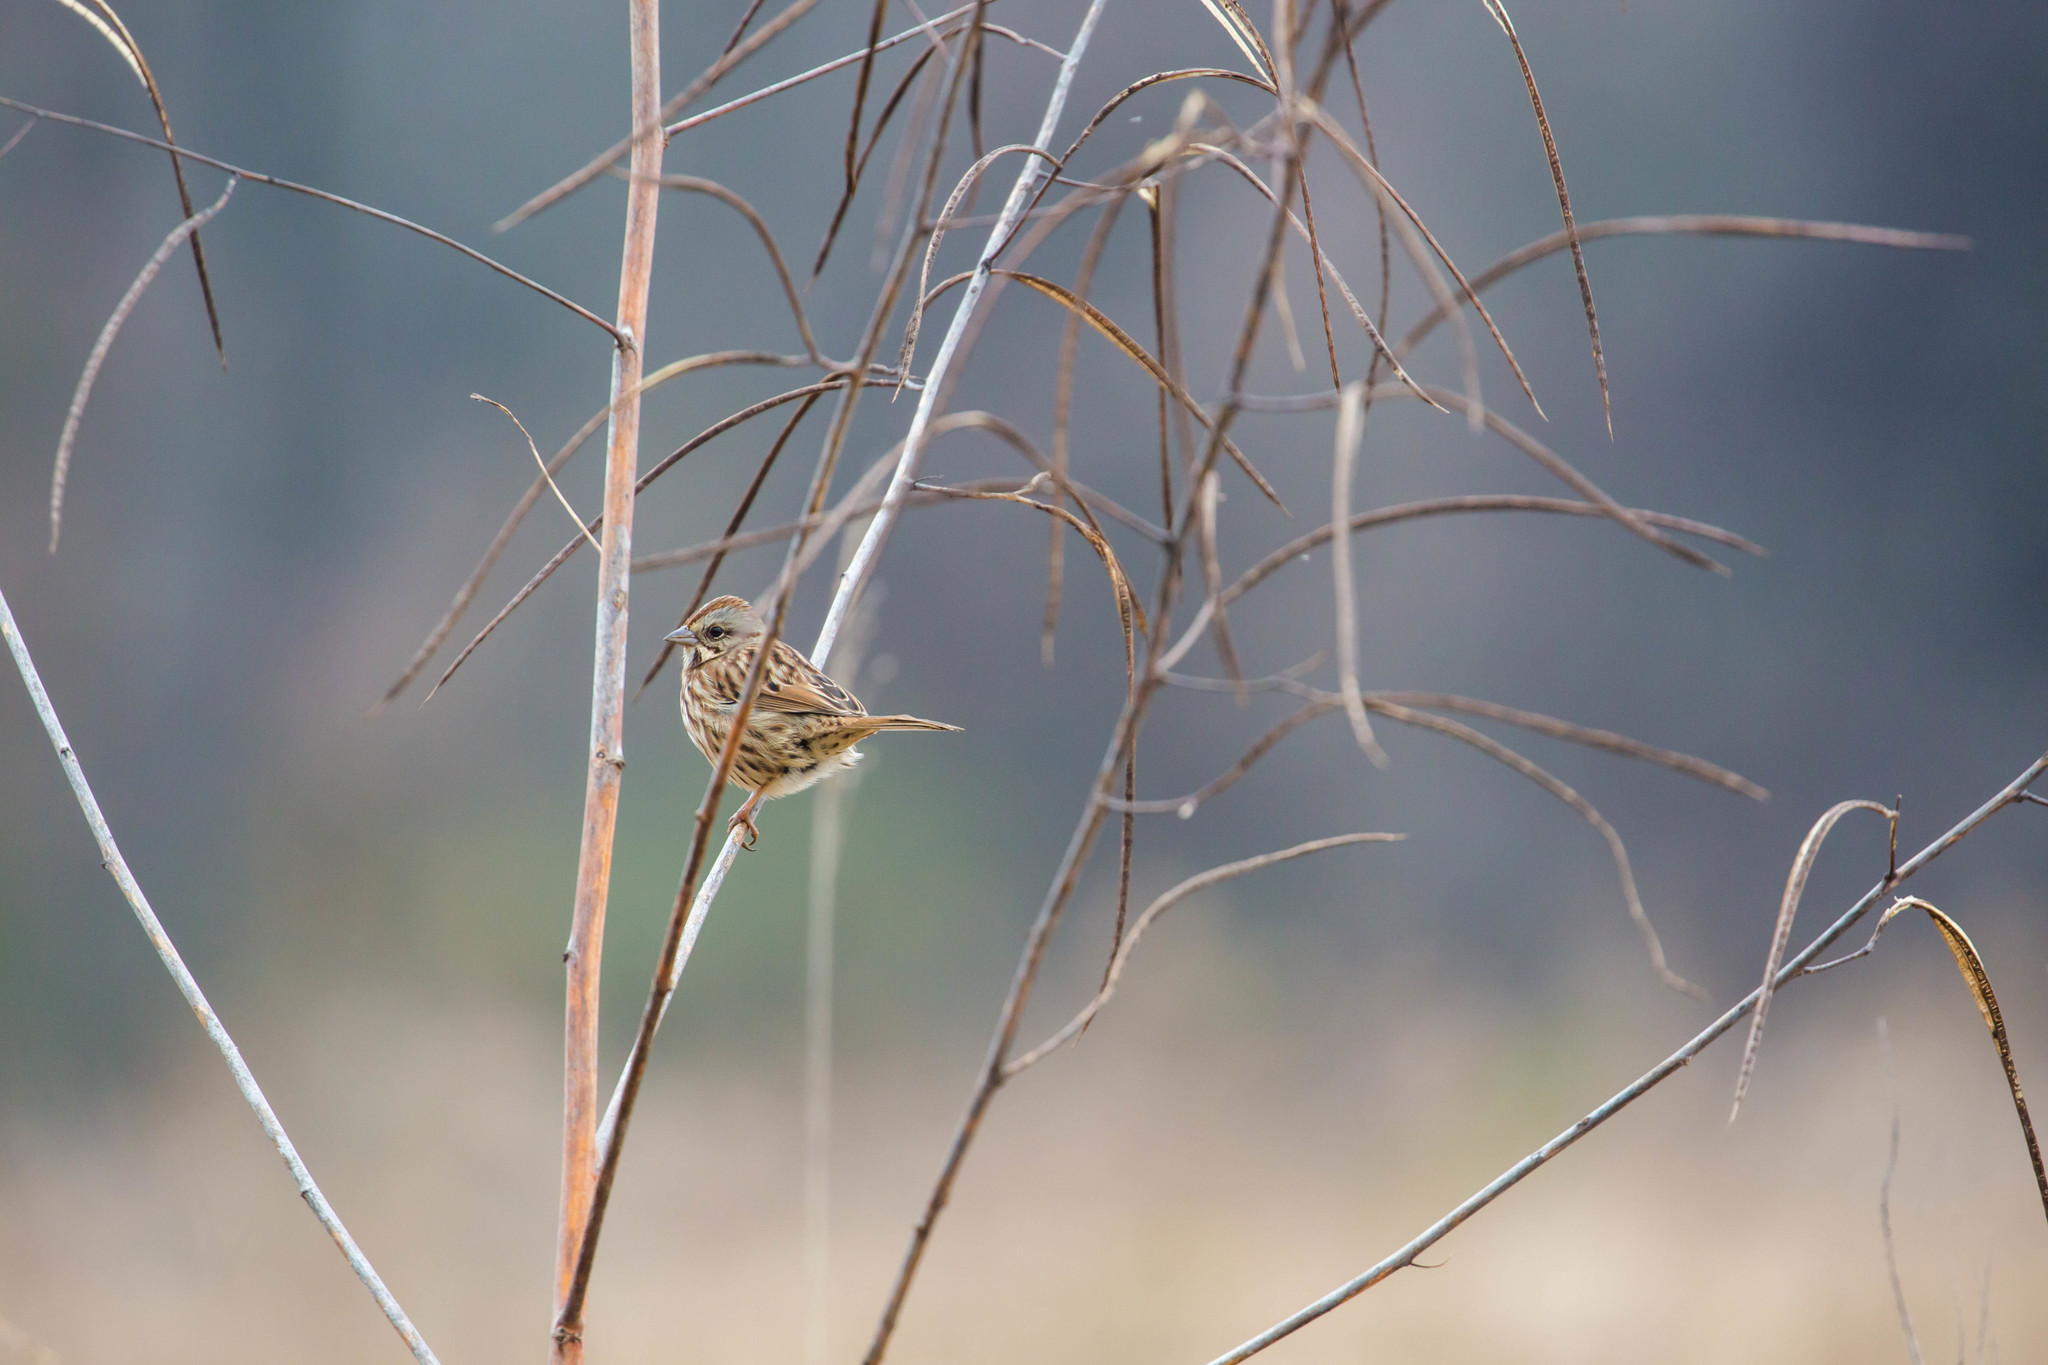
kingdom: Animalia
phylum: Chordata
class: Aves
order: Passeriformes
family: Passerellidae
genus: Melospiza
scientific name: Melospiza melodia
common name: Song sparrow
